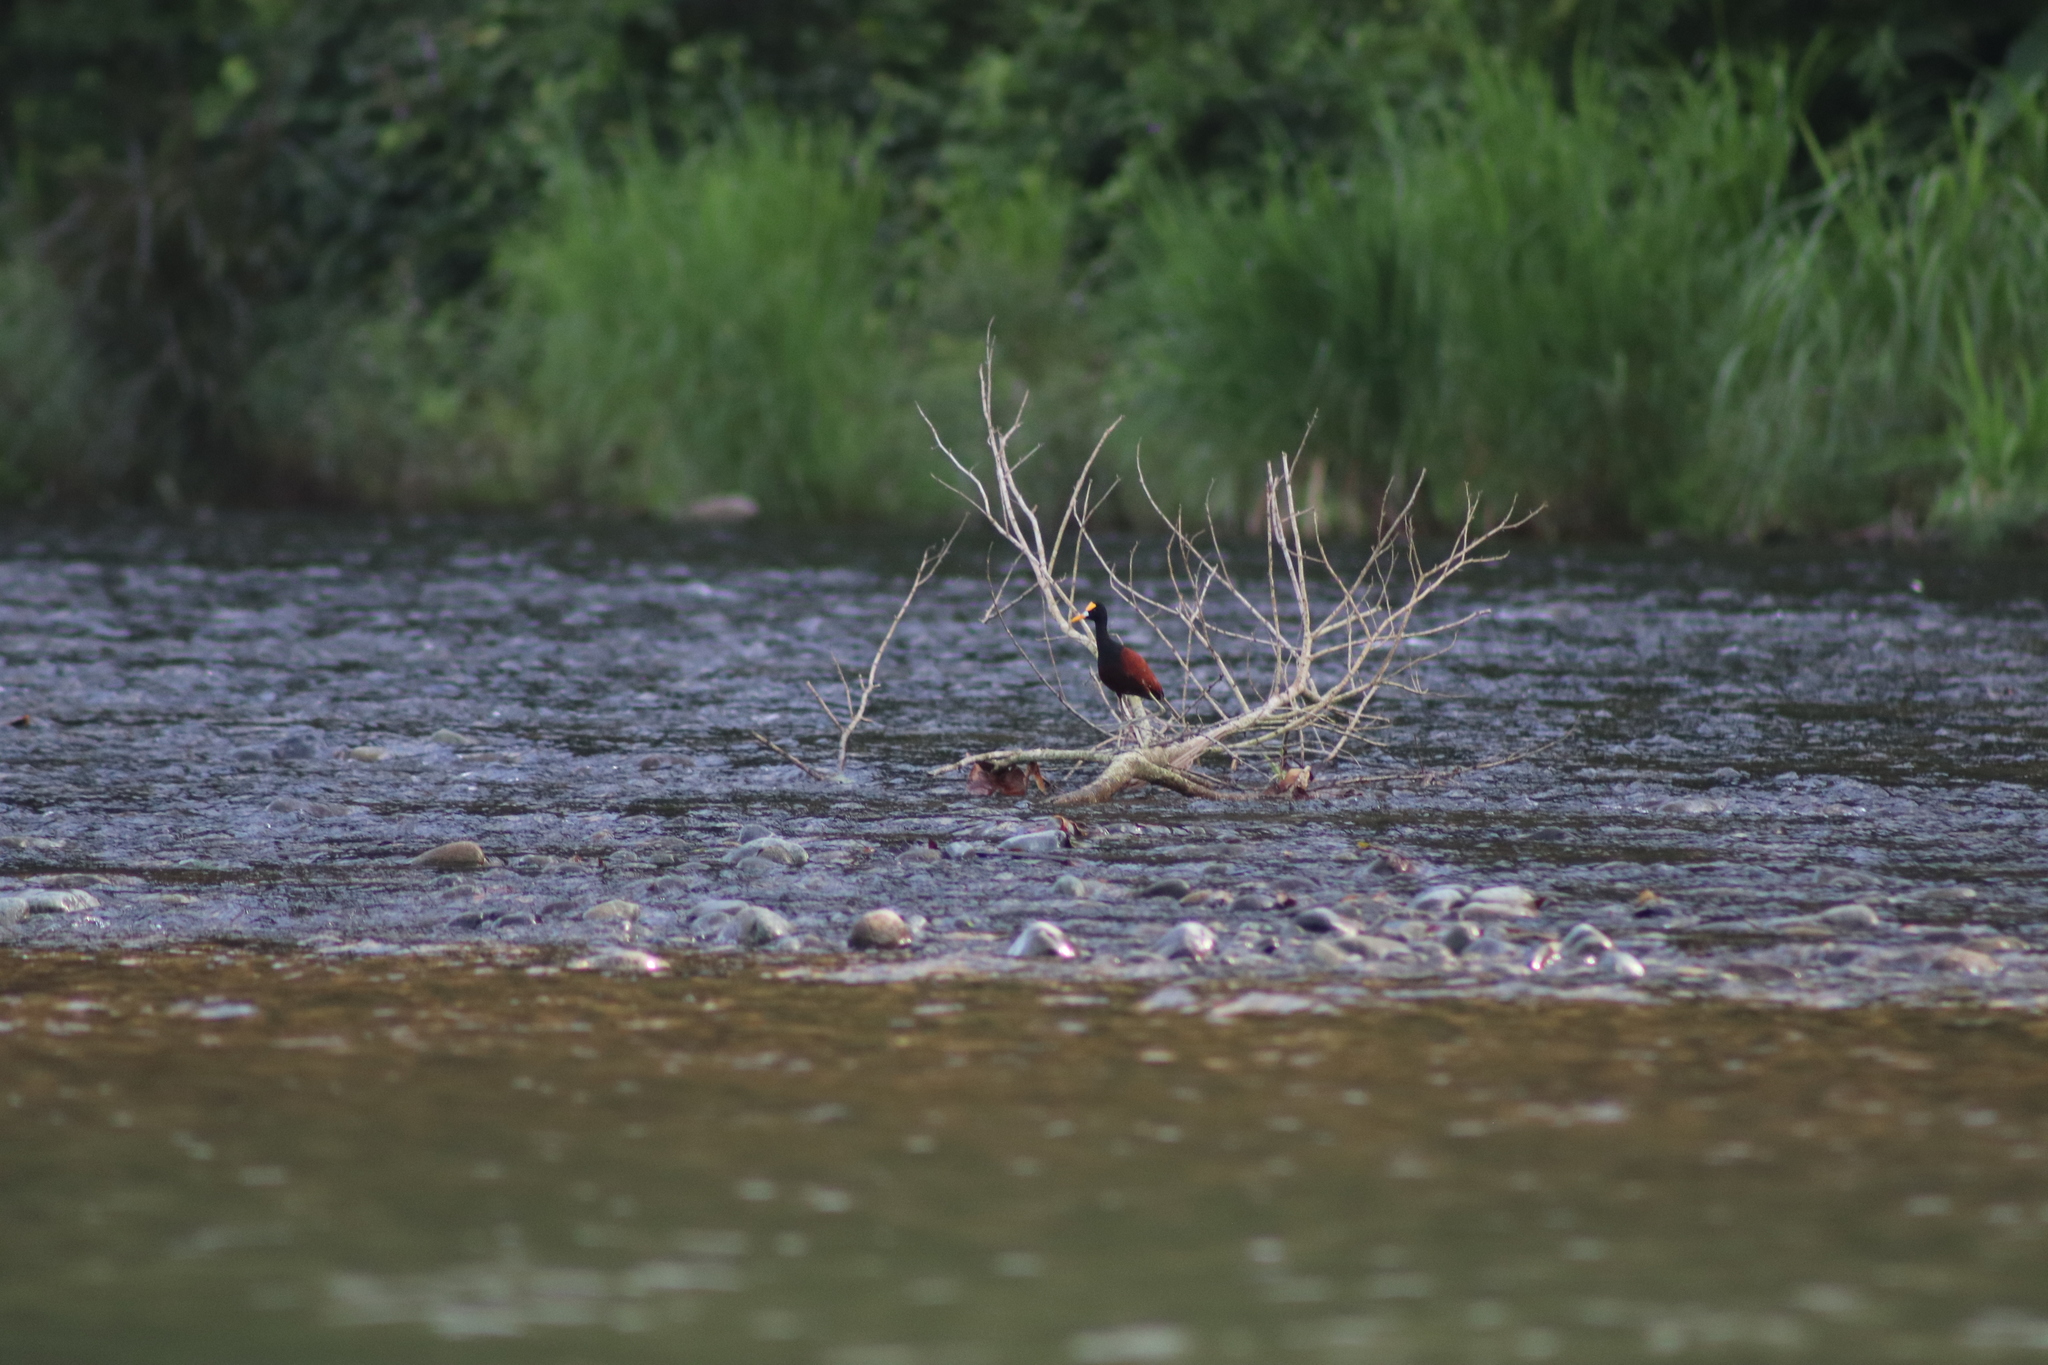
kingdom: Animalia
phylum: Chordata
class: Aves
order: Charadriiformes
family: Jacanidae
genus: Jacana
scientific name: Jacana spinosa
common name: Northern jacana
